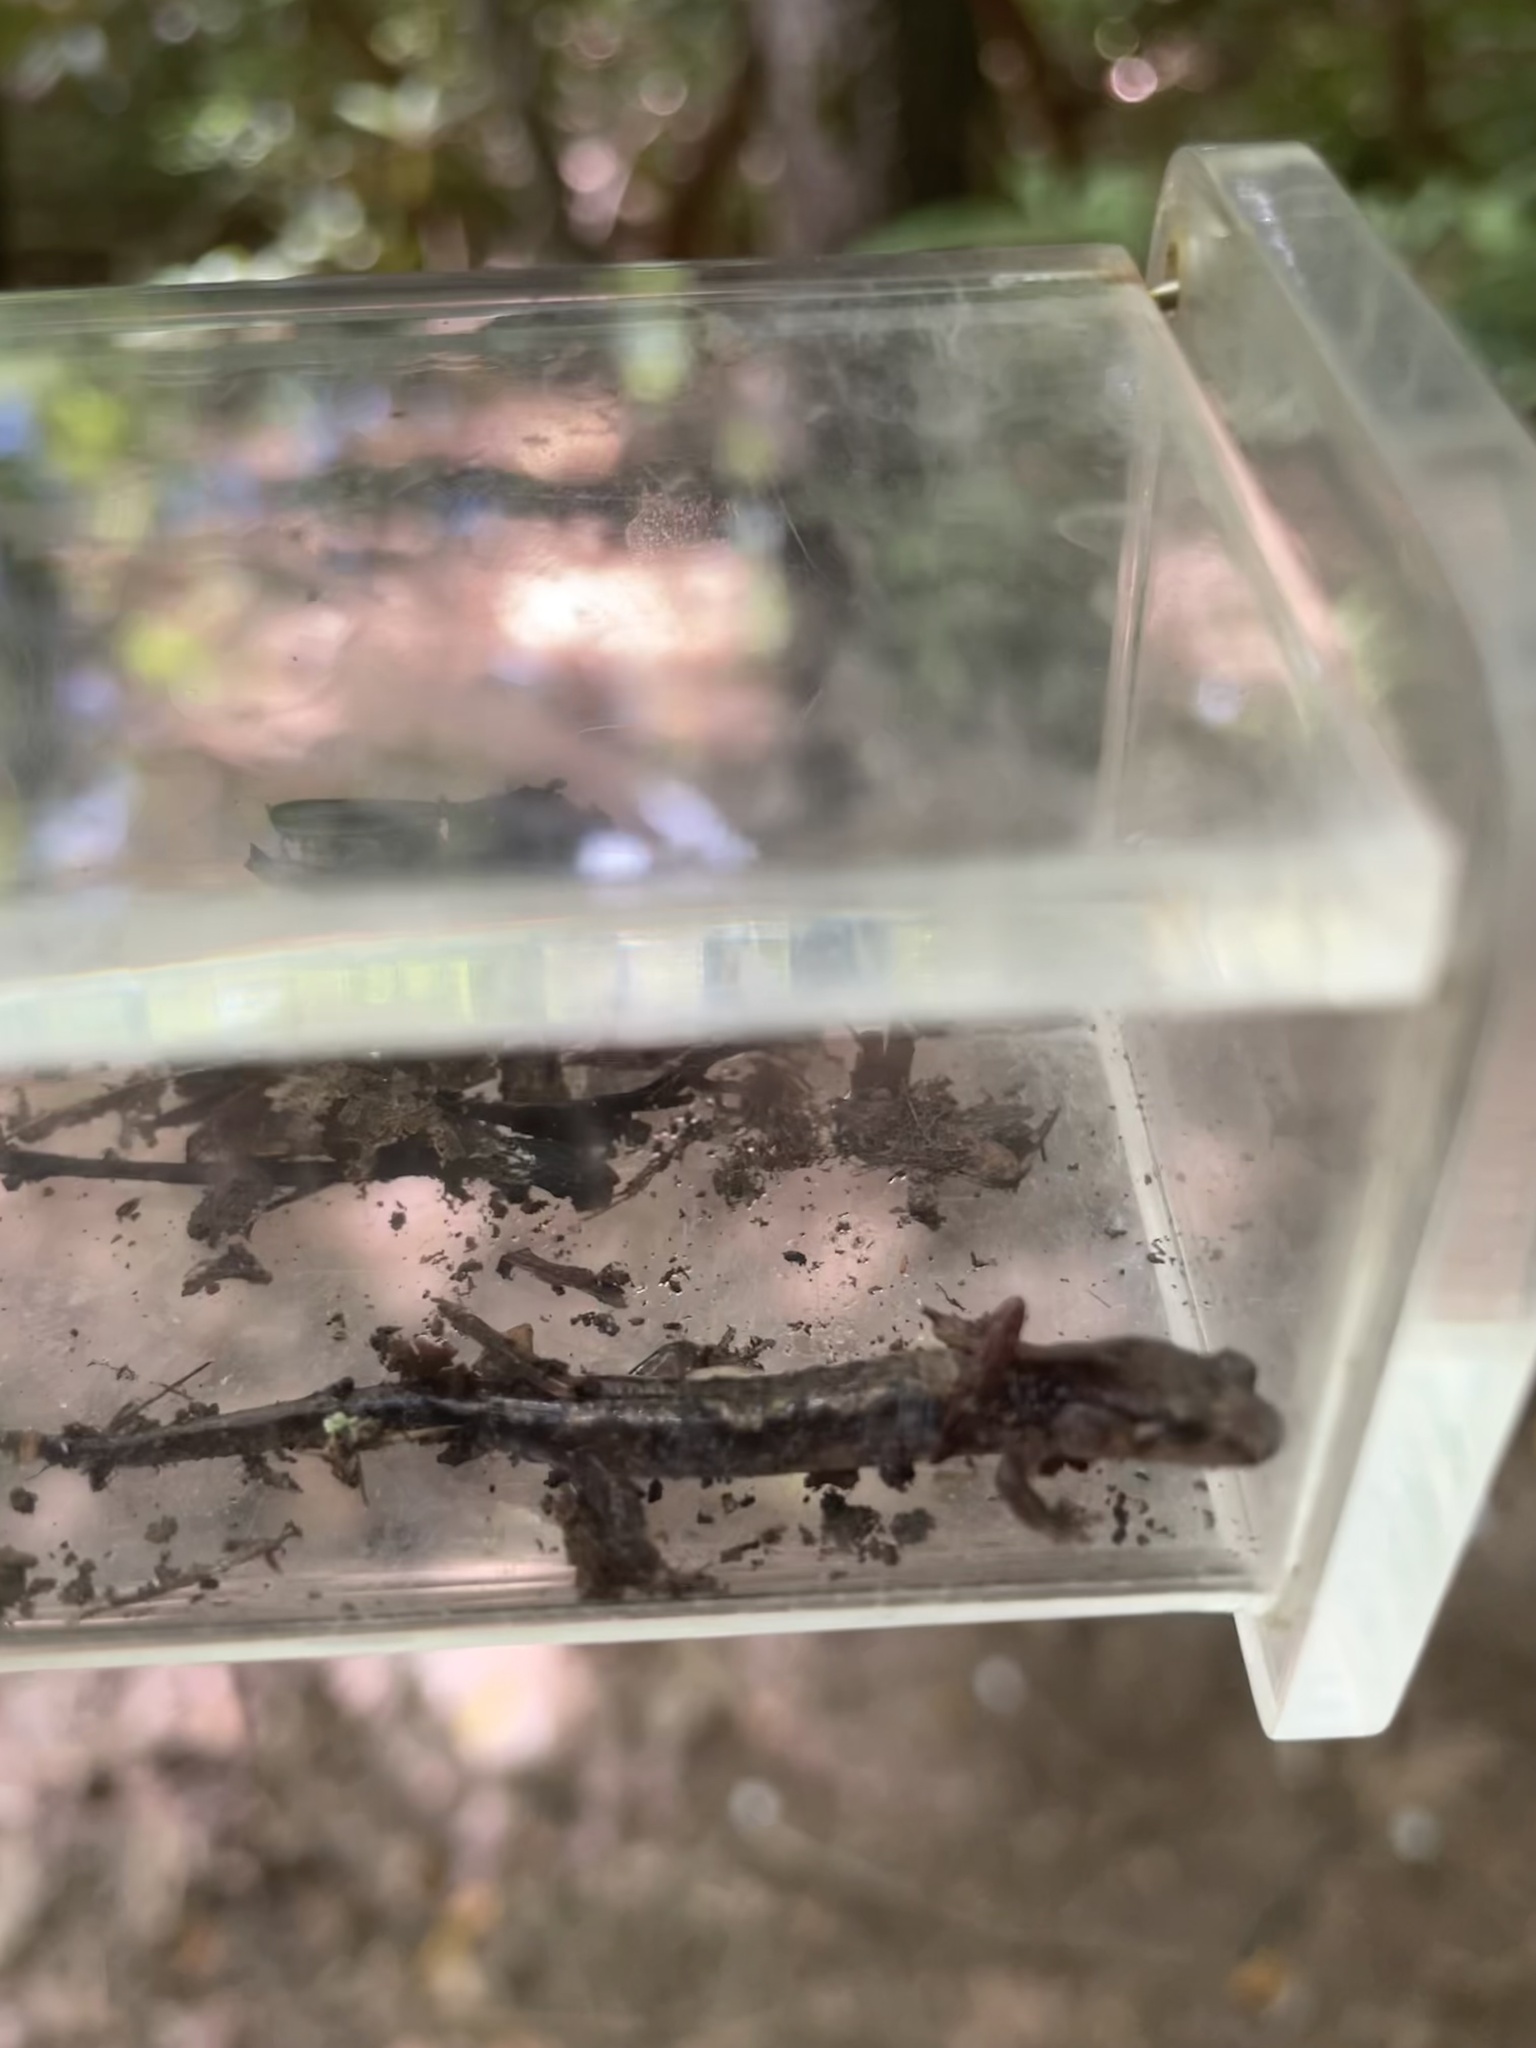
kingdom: Animalia
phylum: Chordata
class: Amphibia
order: Caudata
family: Plethodontidae
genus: Desmognathus
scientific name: Desmognathus ocoee
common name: Ocoee salamander
